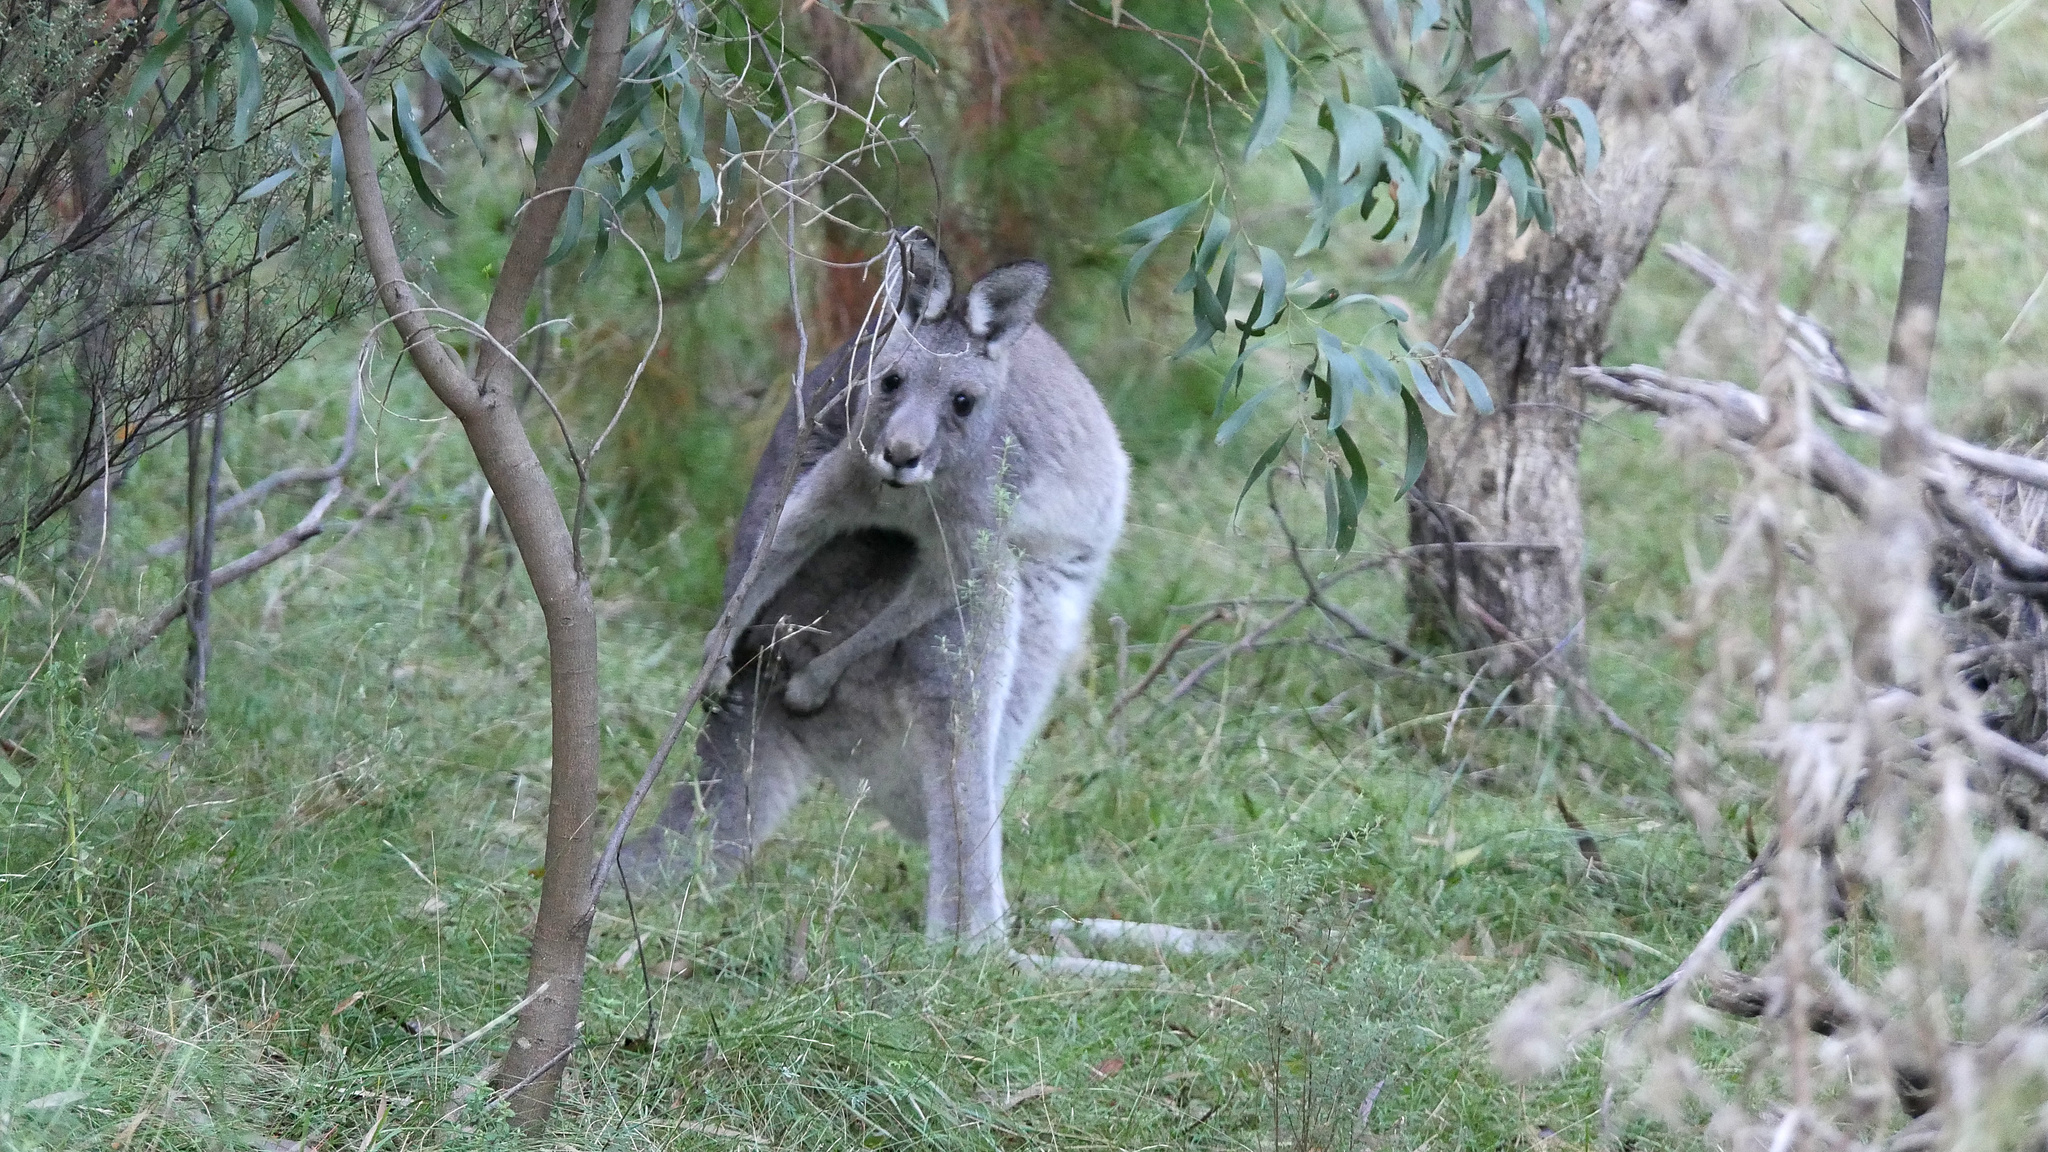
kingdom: Animalia
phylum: Chordata
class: Mammalia
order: Diprotodontia
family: Macropodidae
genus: Macropus
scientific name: Macropus giganteus
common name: Eastern grey kangaroo
